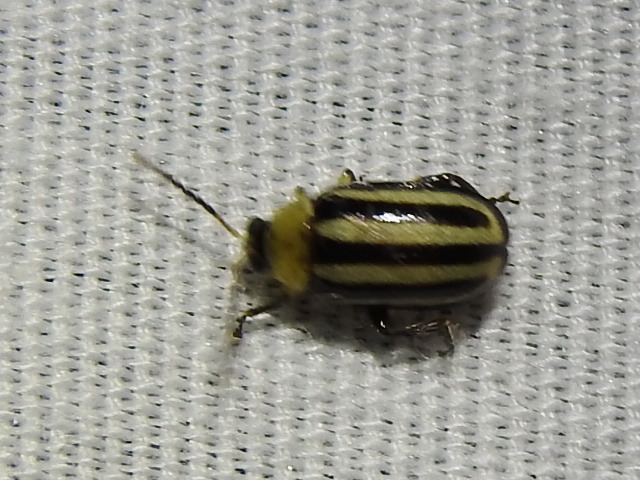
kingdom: Animalia
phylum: Arthropoda
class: Insecta
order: Coleoptera
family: Chrysomelidae
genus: Disonycha
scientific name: Disonycha barberi
